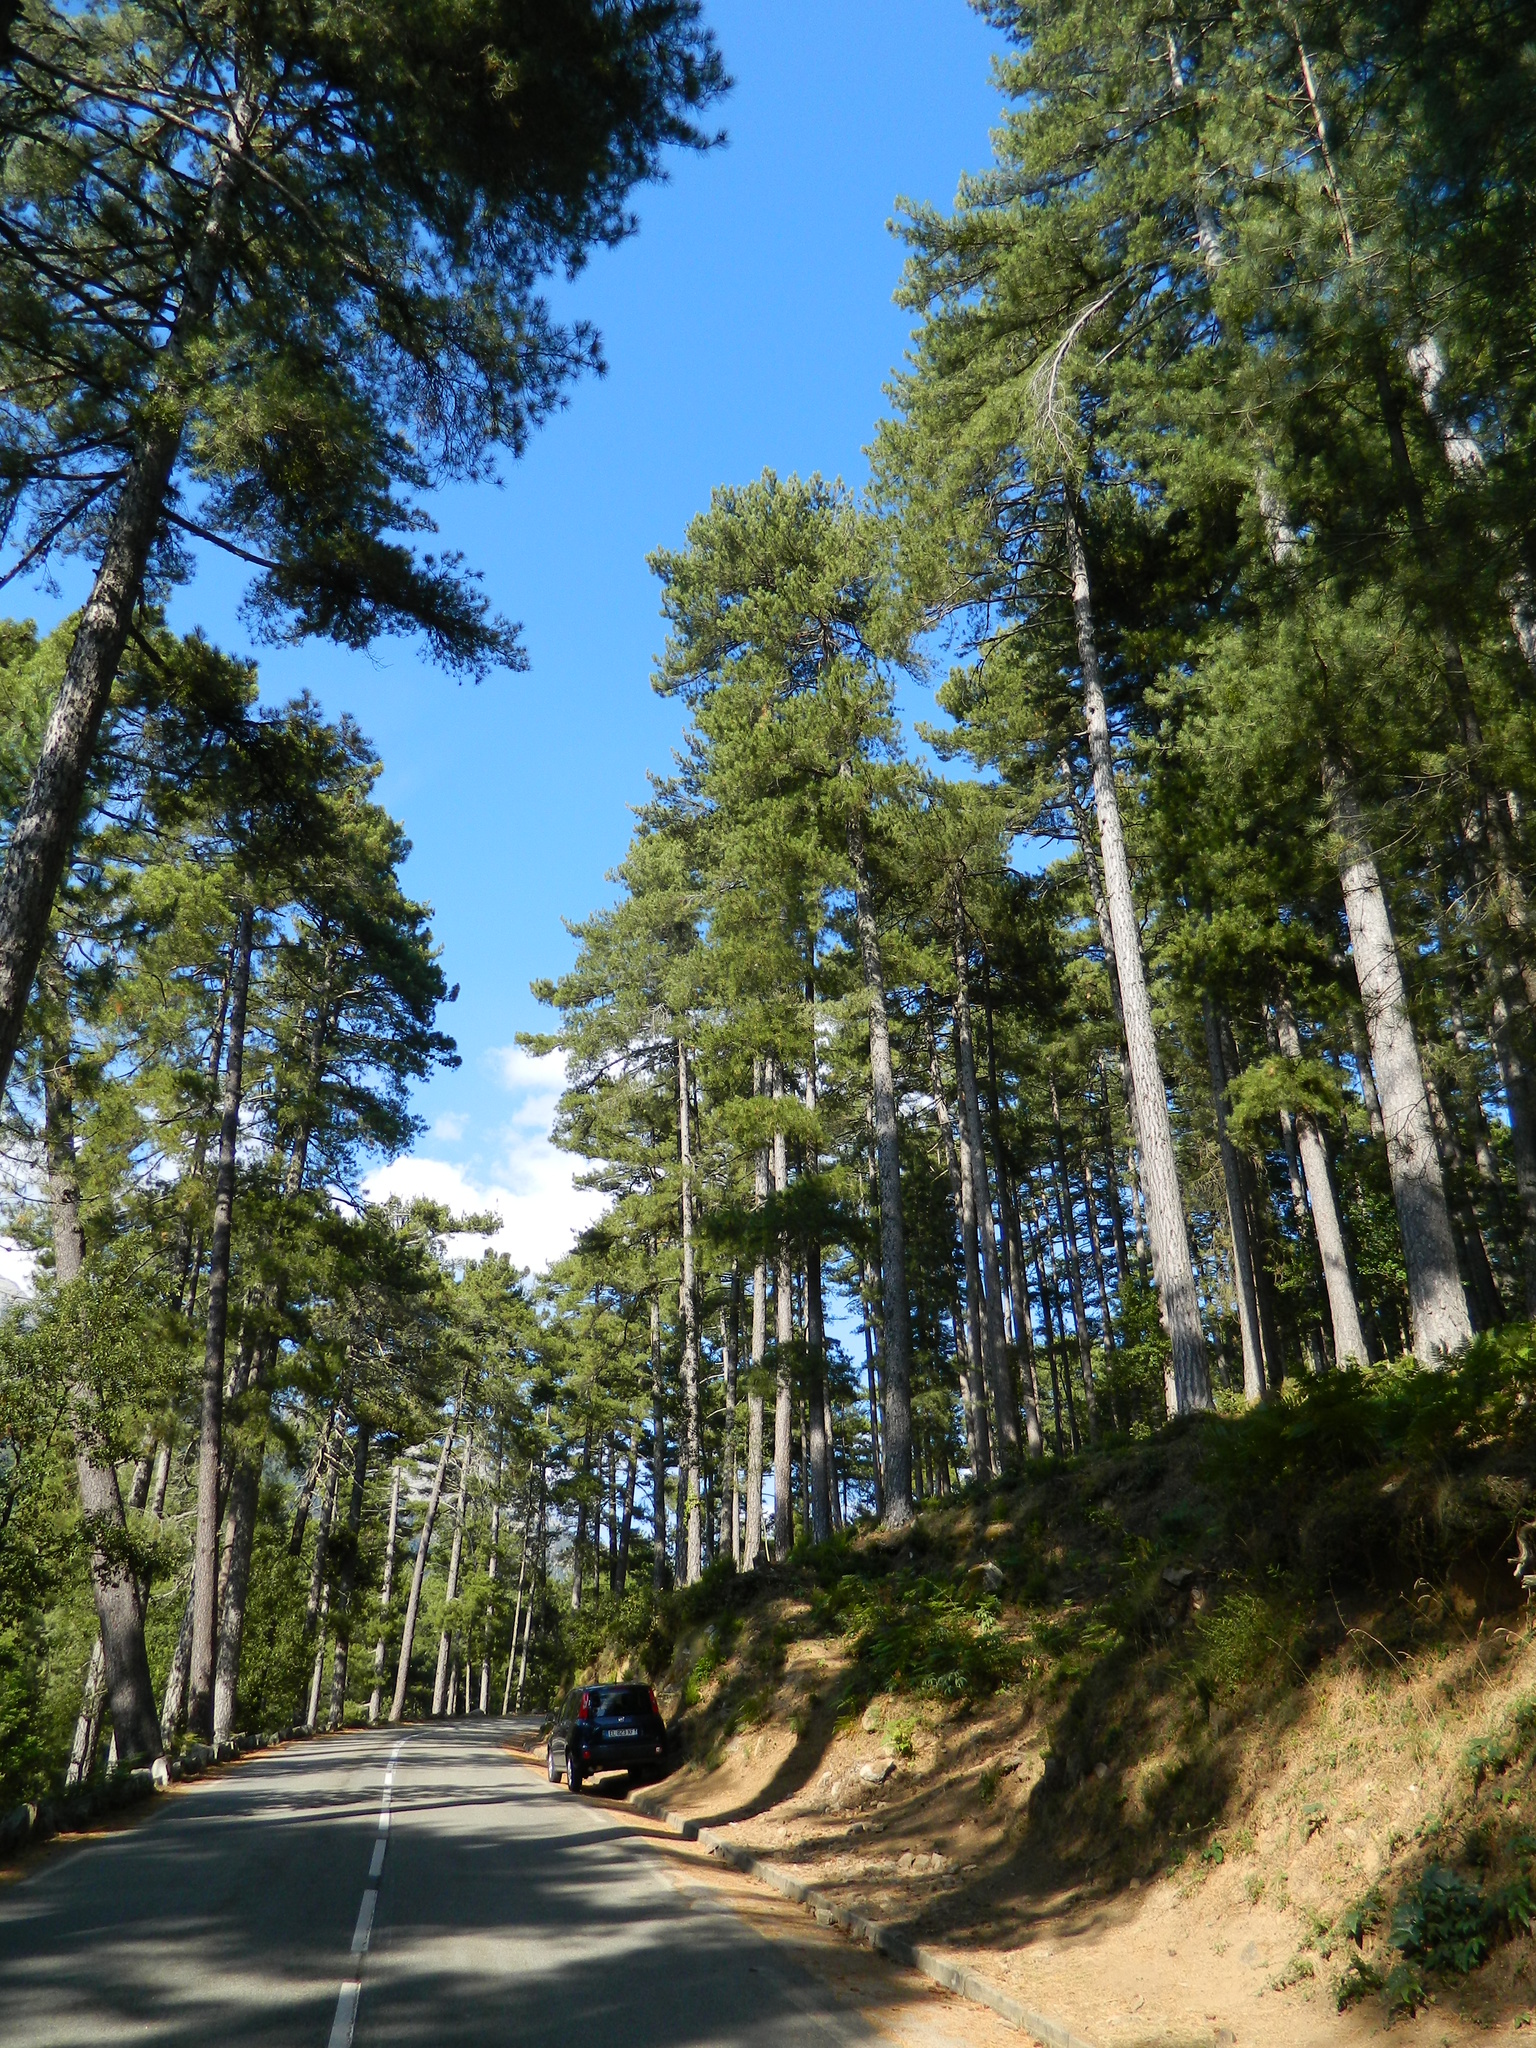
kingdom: Plantae
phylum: Tracheophyta
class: Pinopsida
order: Pinales
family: Pinaceae
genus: Pinus
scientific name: Pinus nigra
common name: Austrian pine
